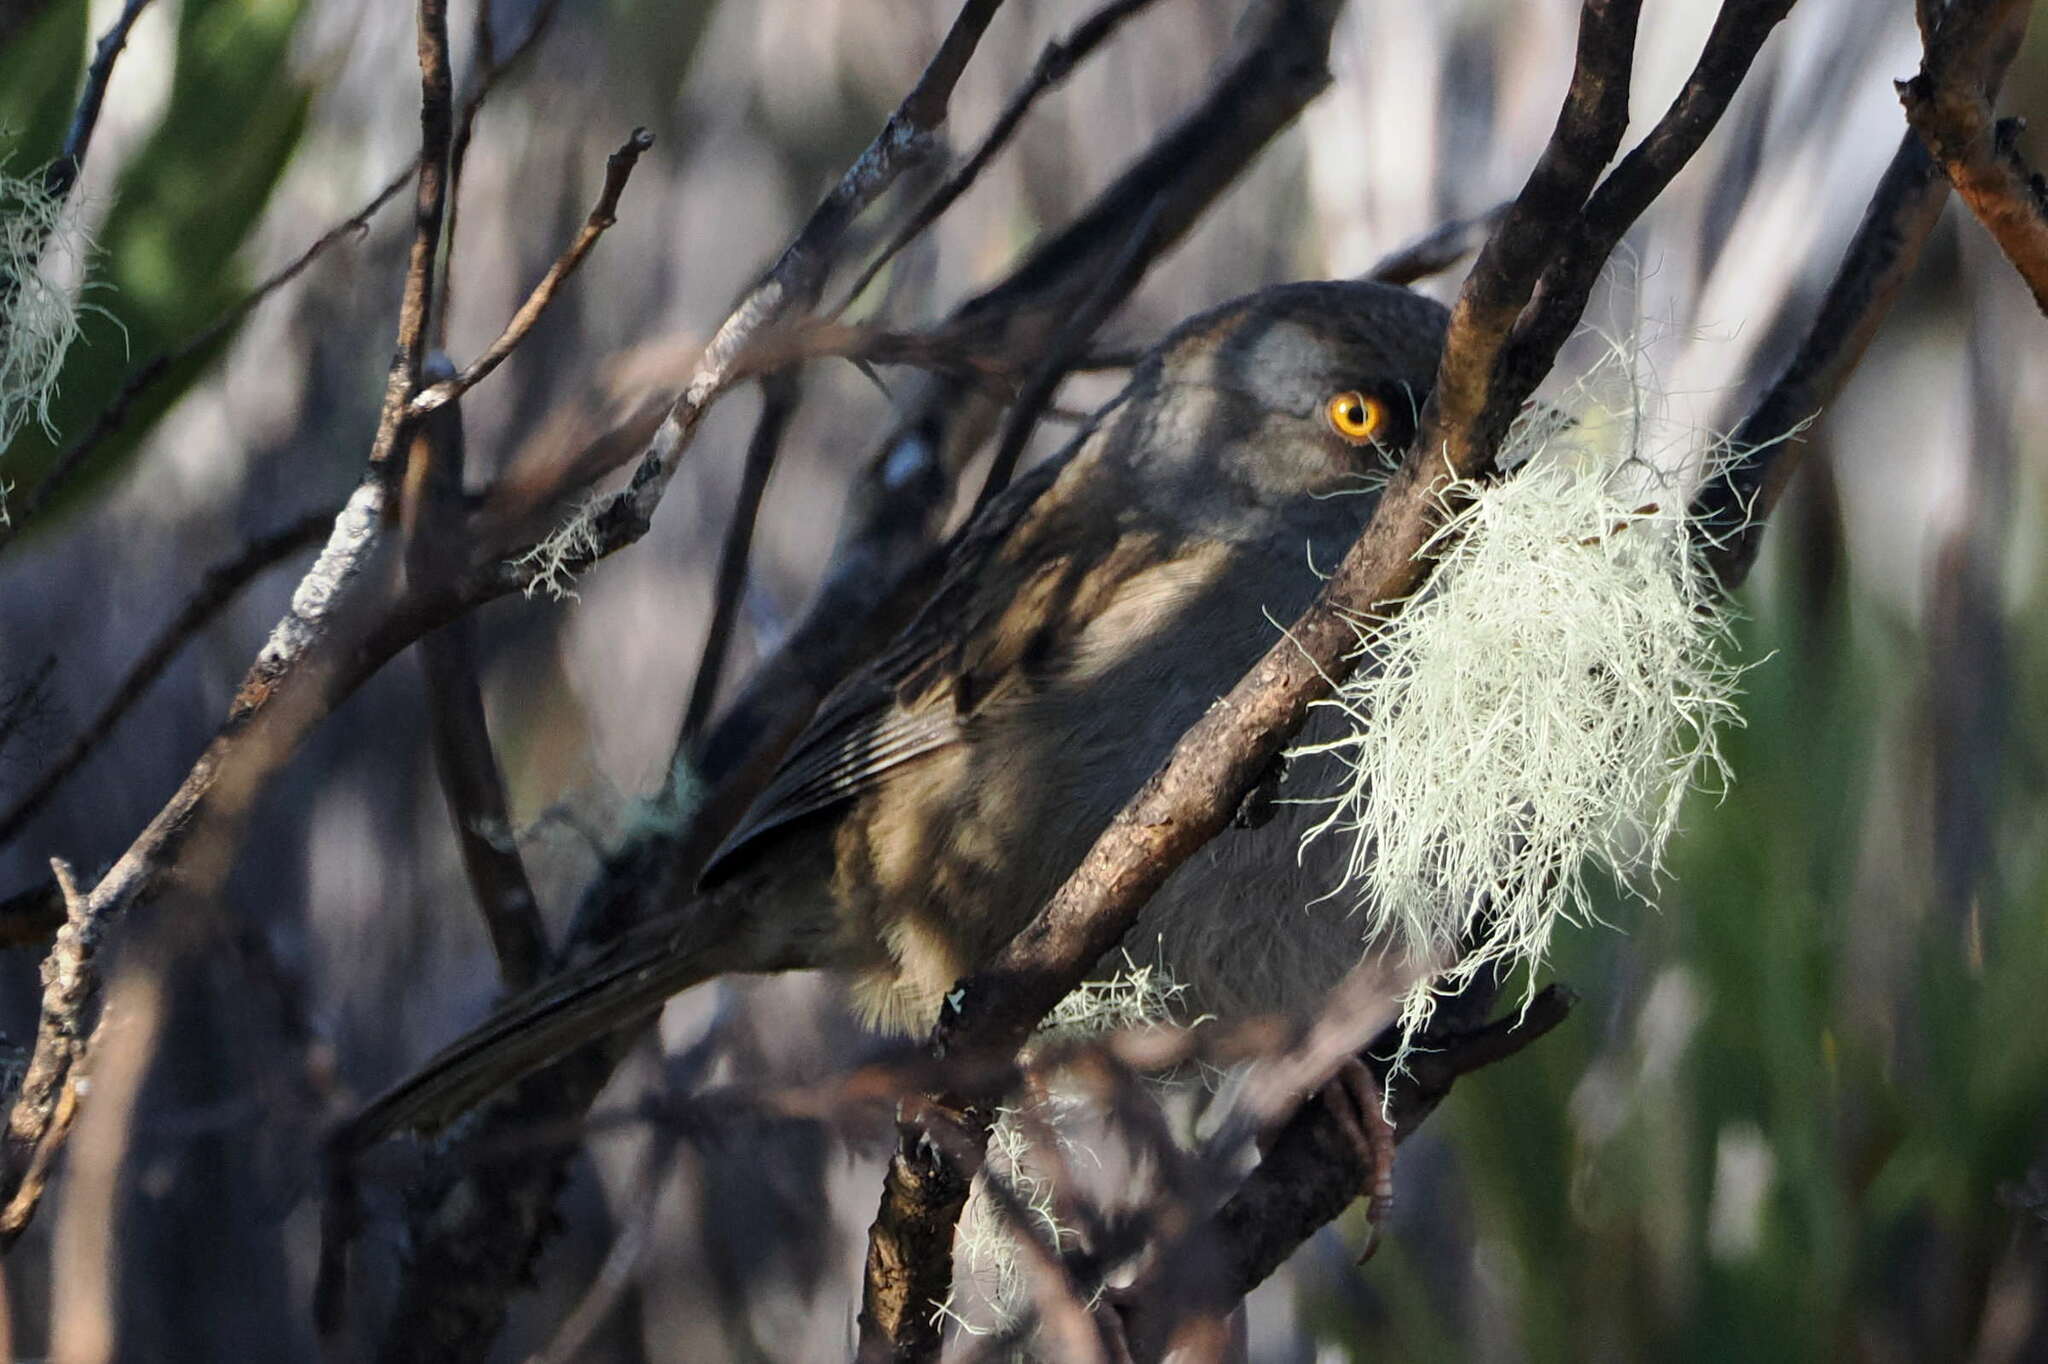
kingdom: Animalia
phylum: Chordata
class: Aves
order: Passeriformes
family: Passerellidae
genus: Junco
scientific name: Junco vulcani
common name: Volcano junco
